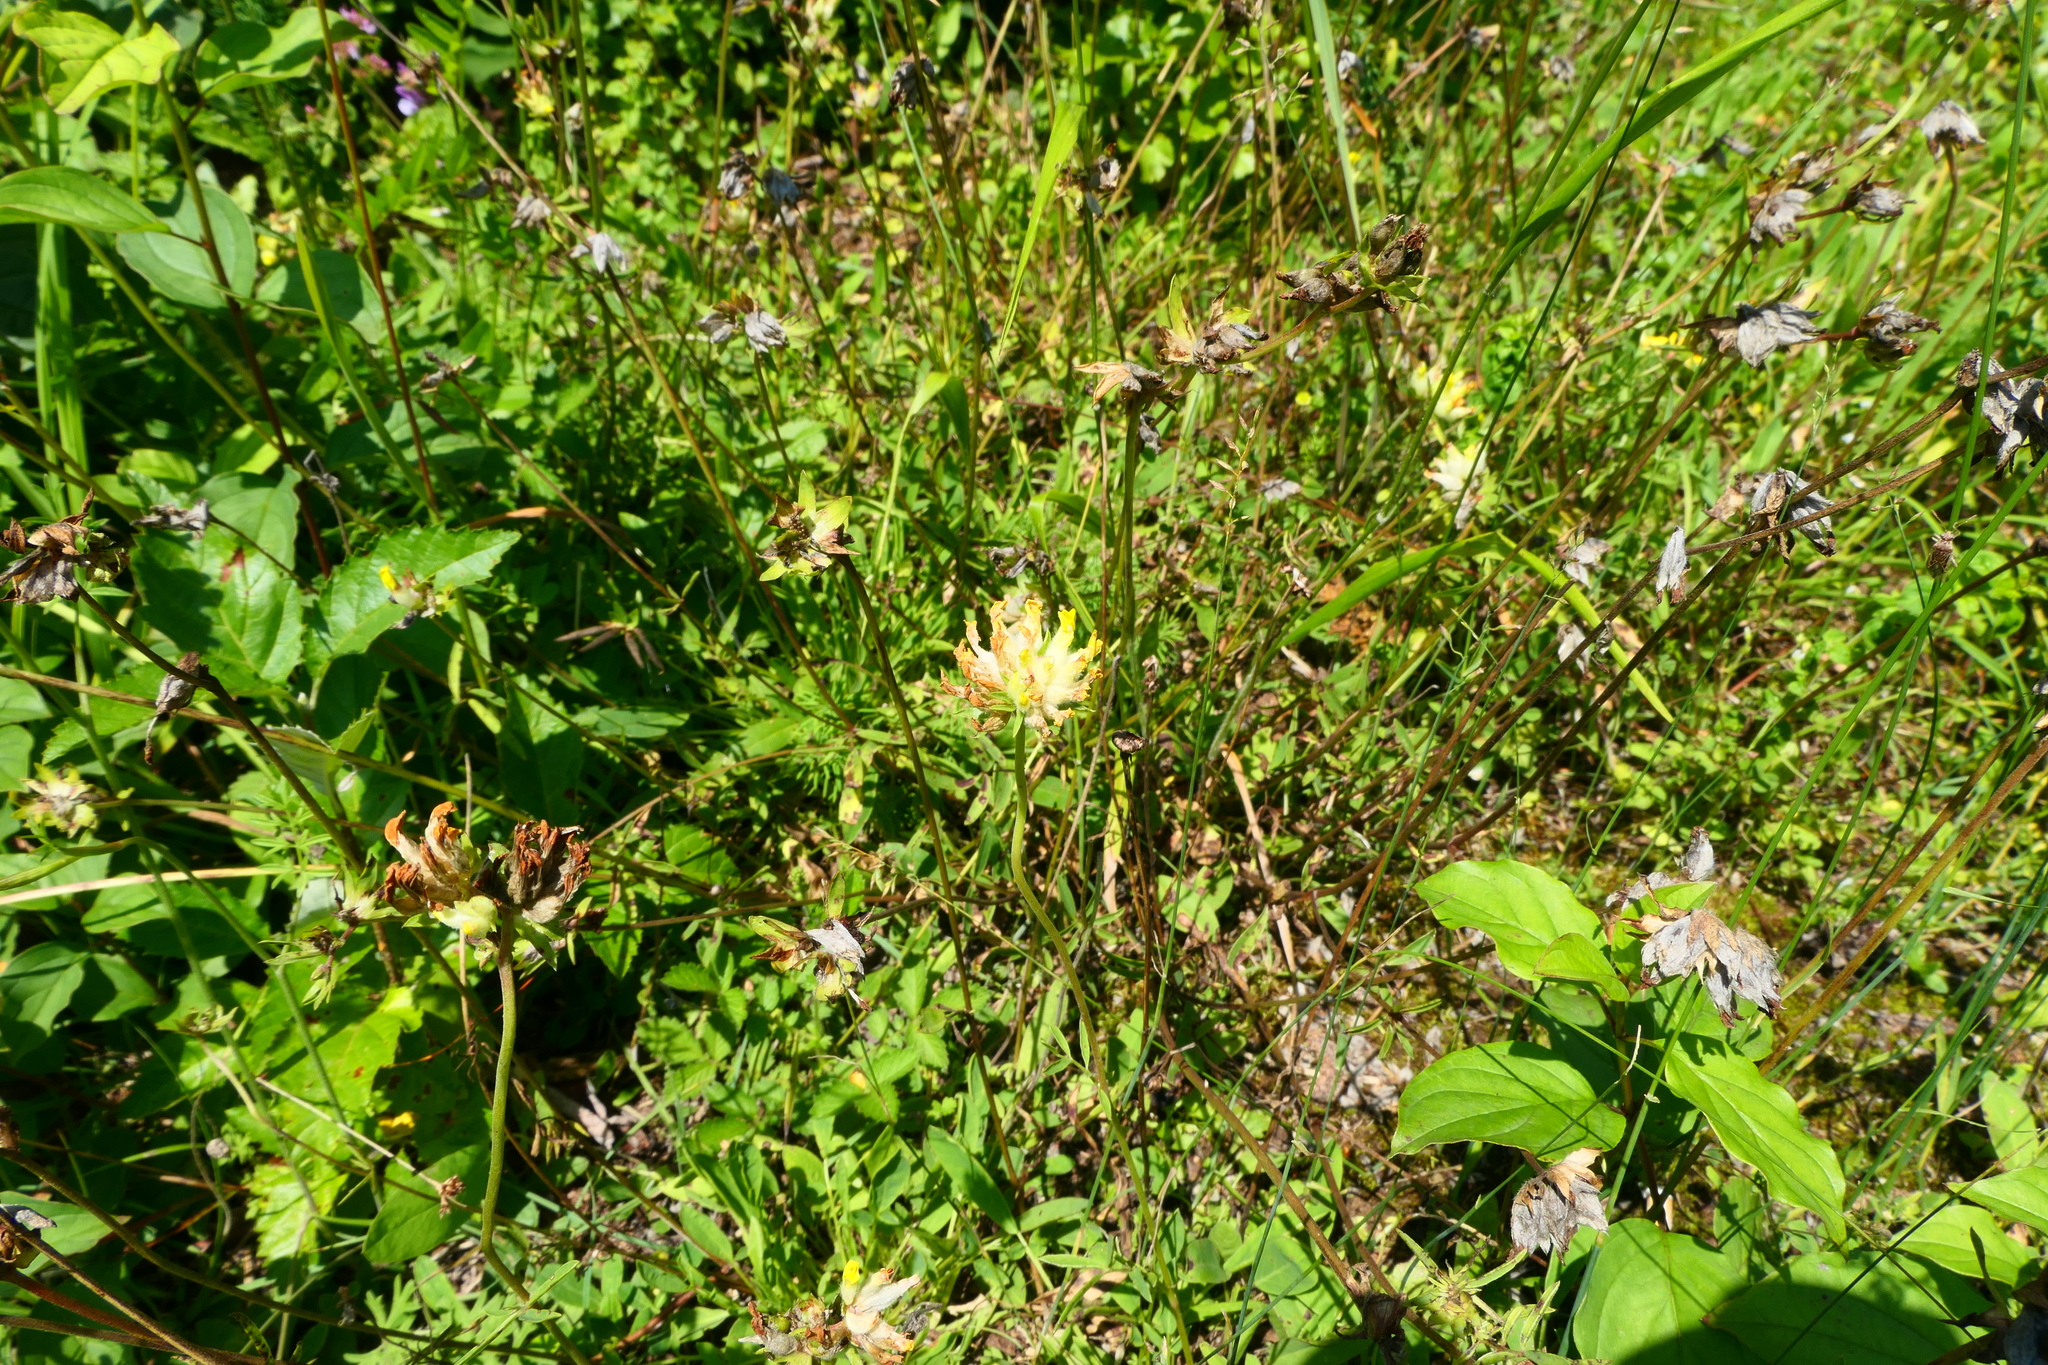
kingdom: Plantae
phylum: Tracheophyta
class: Magnoliopsida
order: Fabales
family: Fabaceae
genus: Anthyllis
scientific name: Anthyllis vulneraria
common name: Kidney vetch
